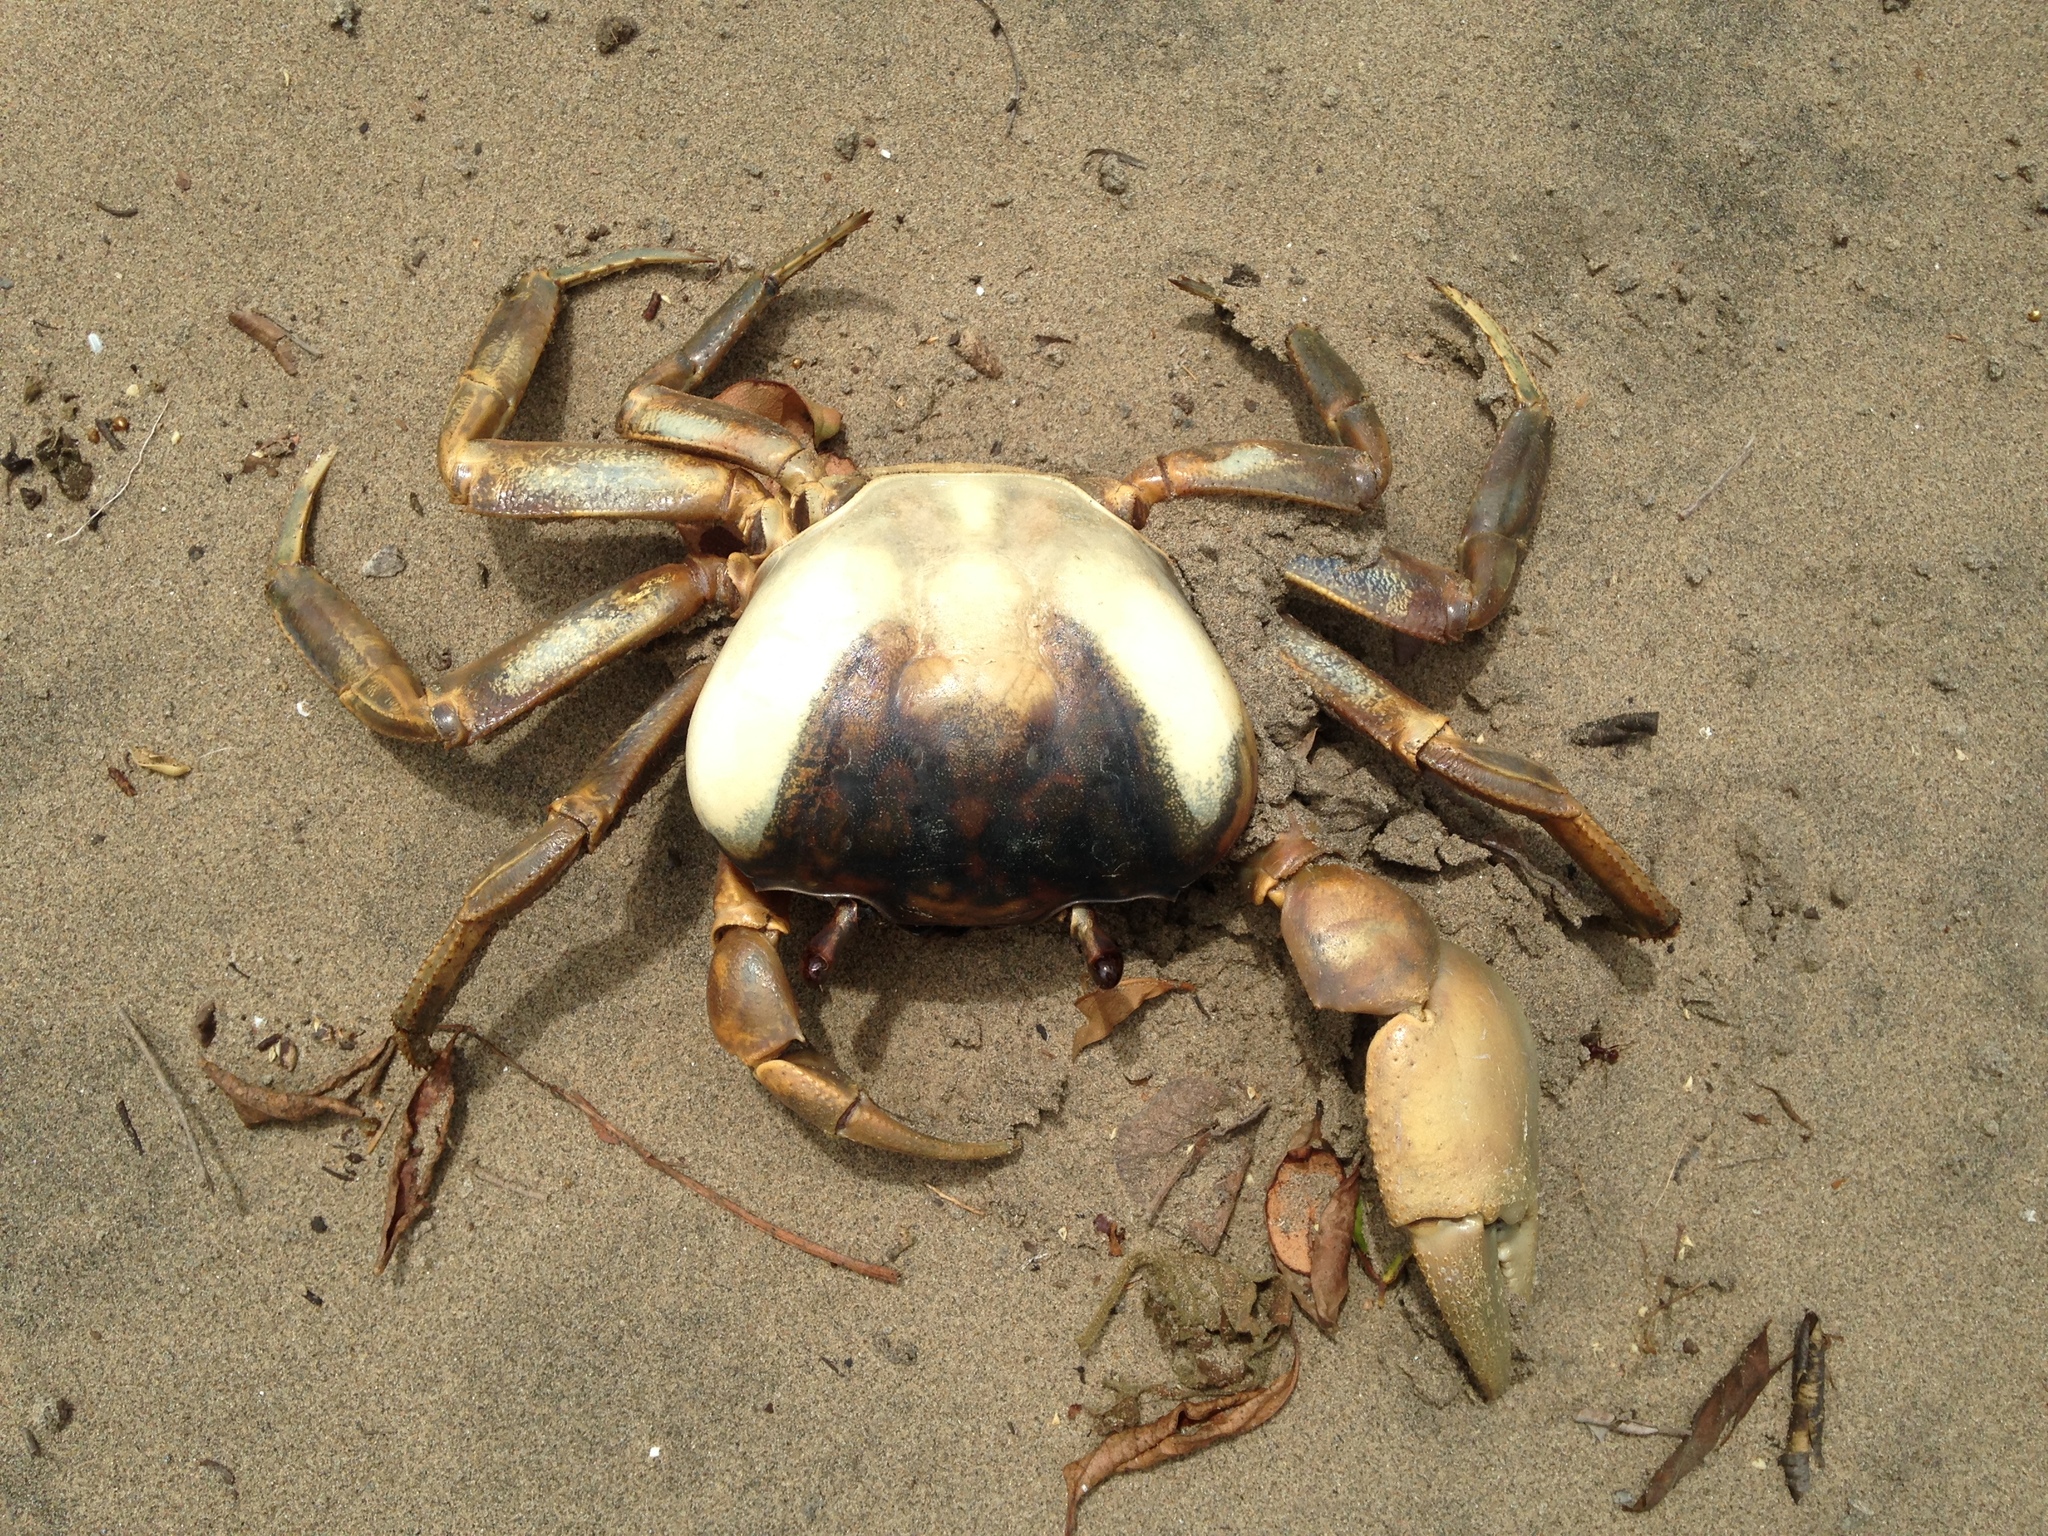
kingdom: Animalia
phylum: Arthropoda
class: Malacostraca
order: Decapoda
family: Gecarcinidae
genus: Cardisoma
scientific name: Cardisoma guanhumi
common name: Great land crab
